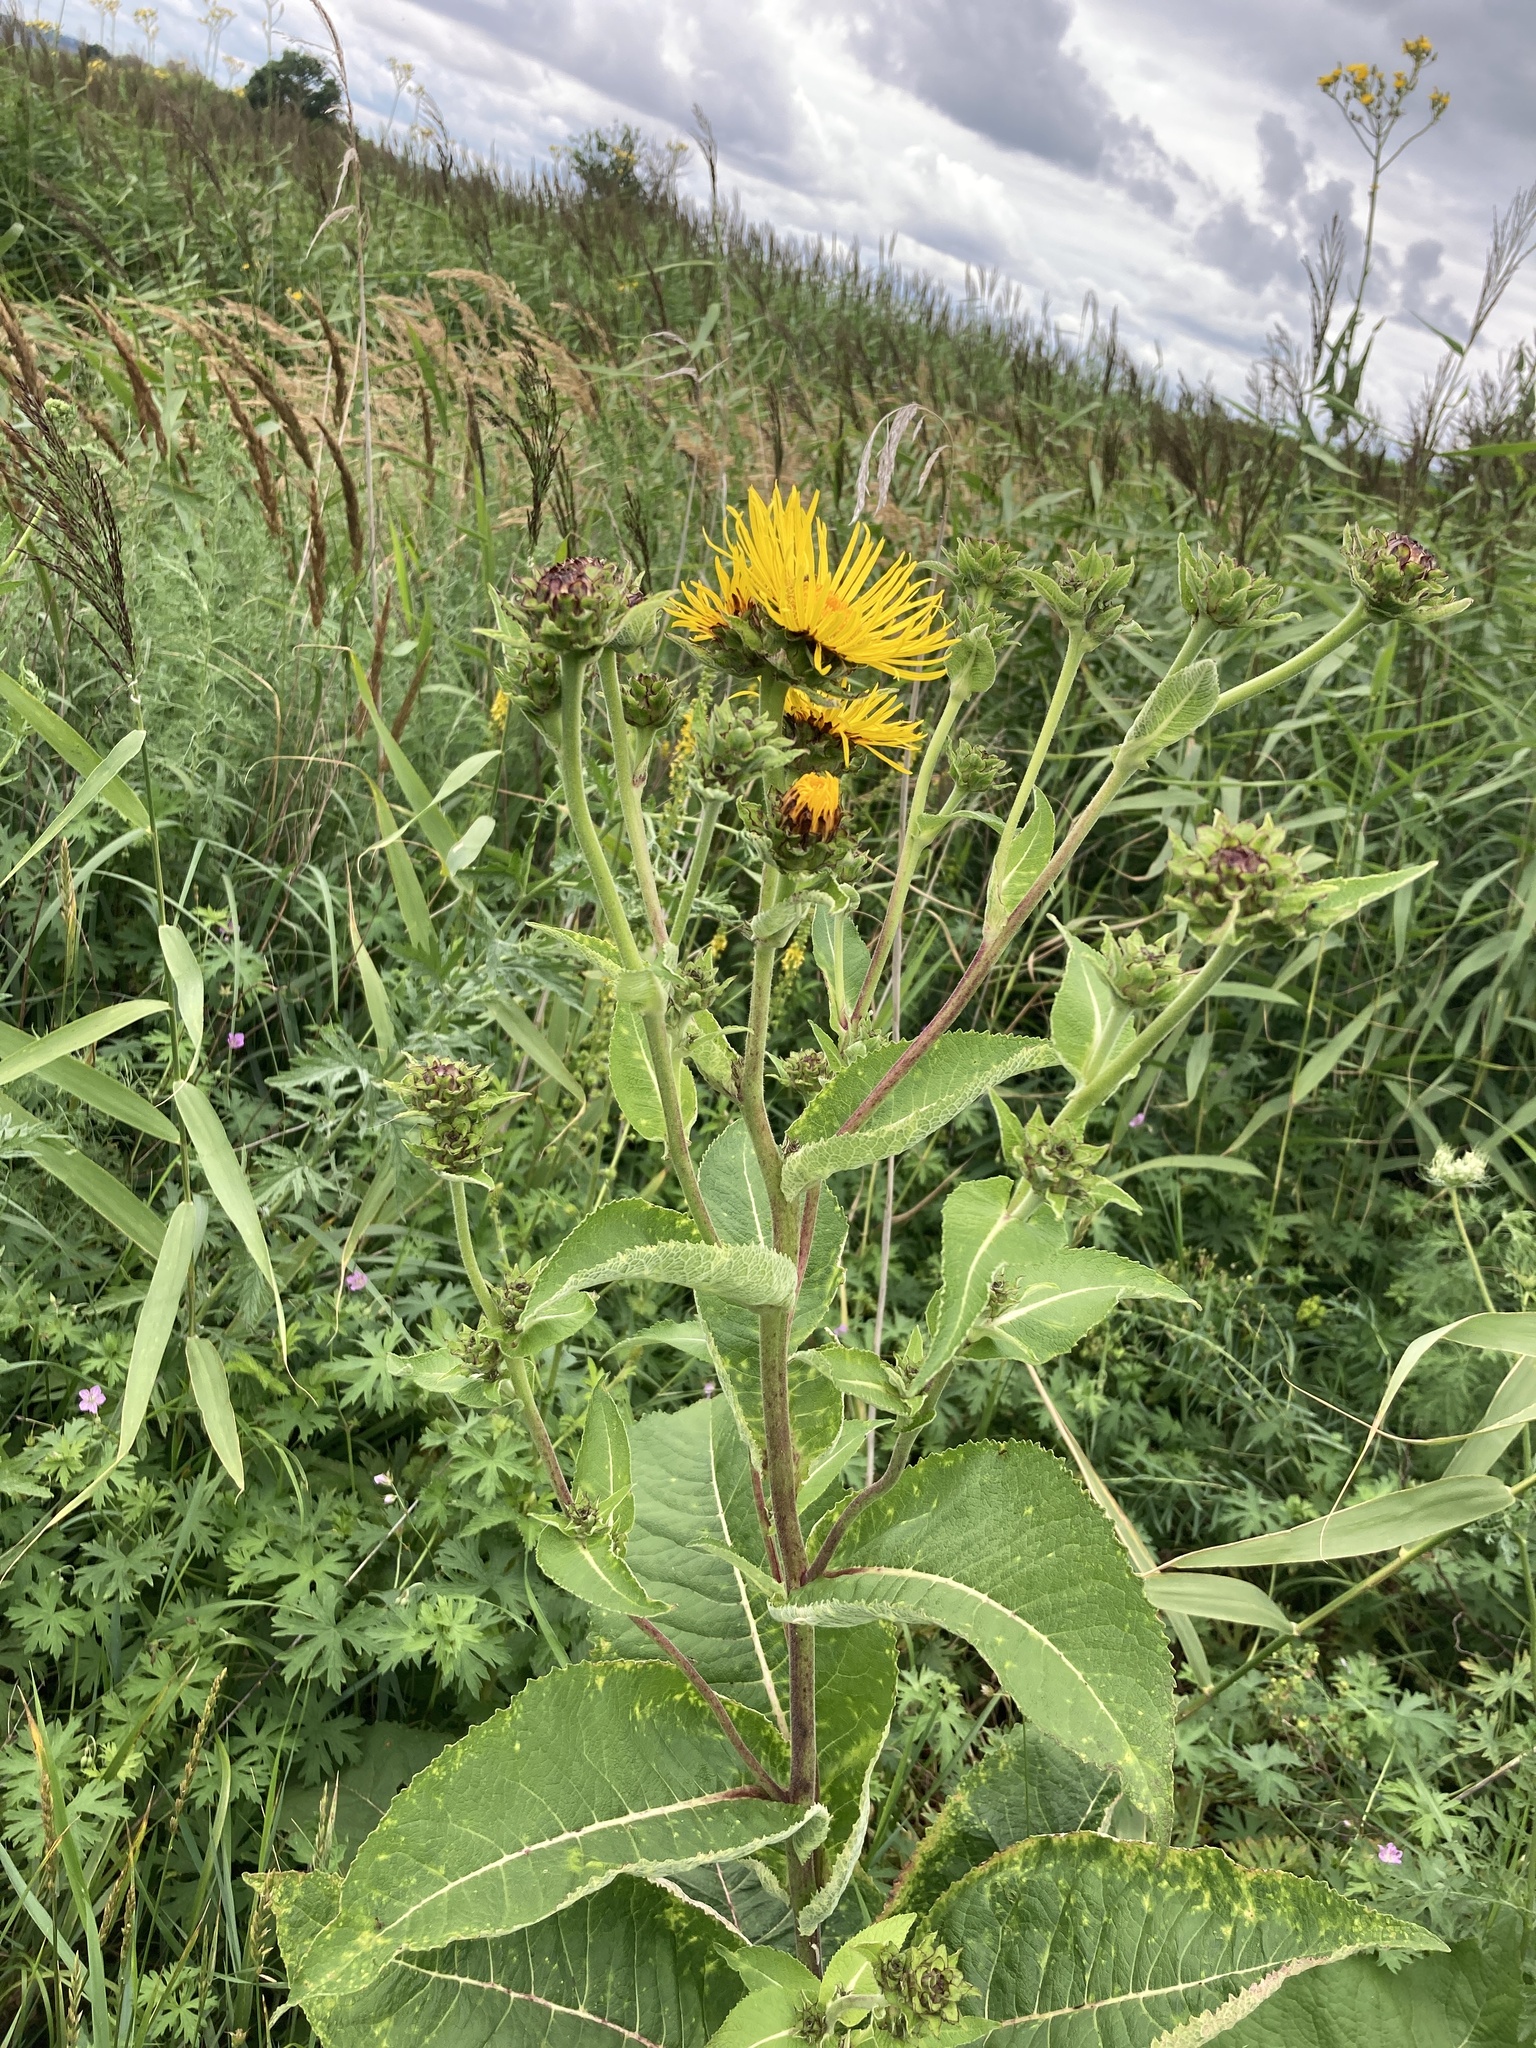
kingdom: Plantae
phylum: Tracheophyta
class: Magnoliopsida
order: Asterales
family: Asteraceae
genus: Inula
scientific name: Inula helenium
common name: Elecampane
